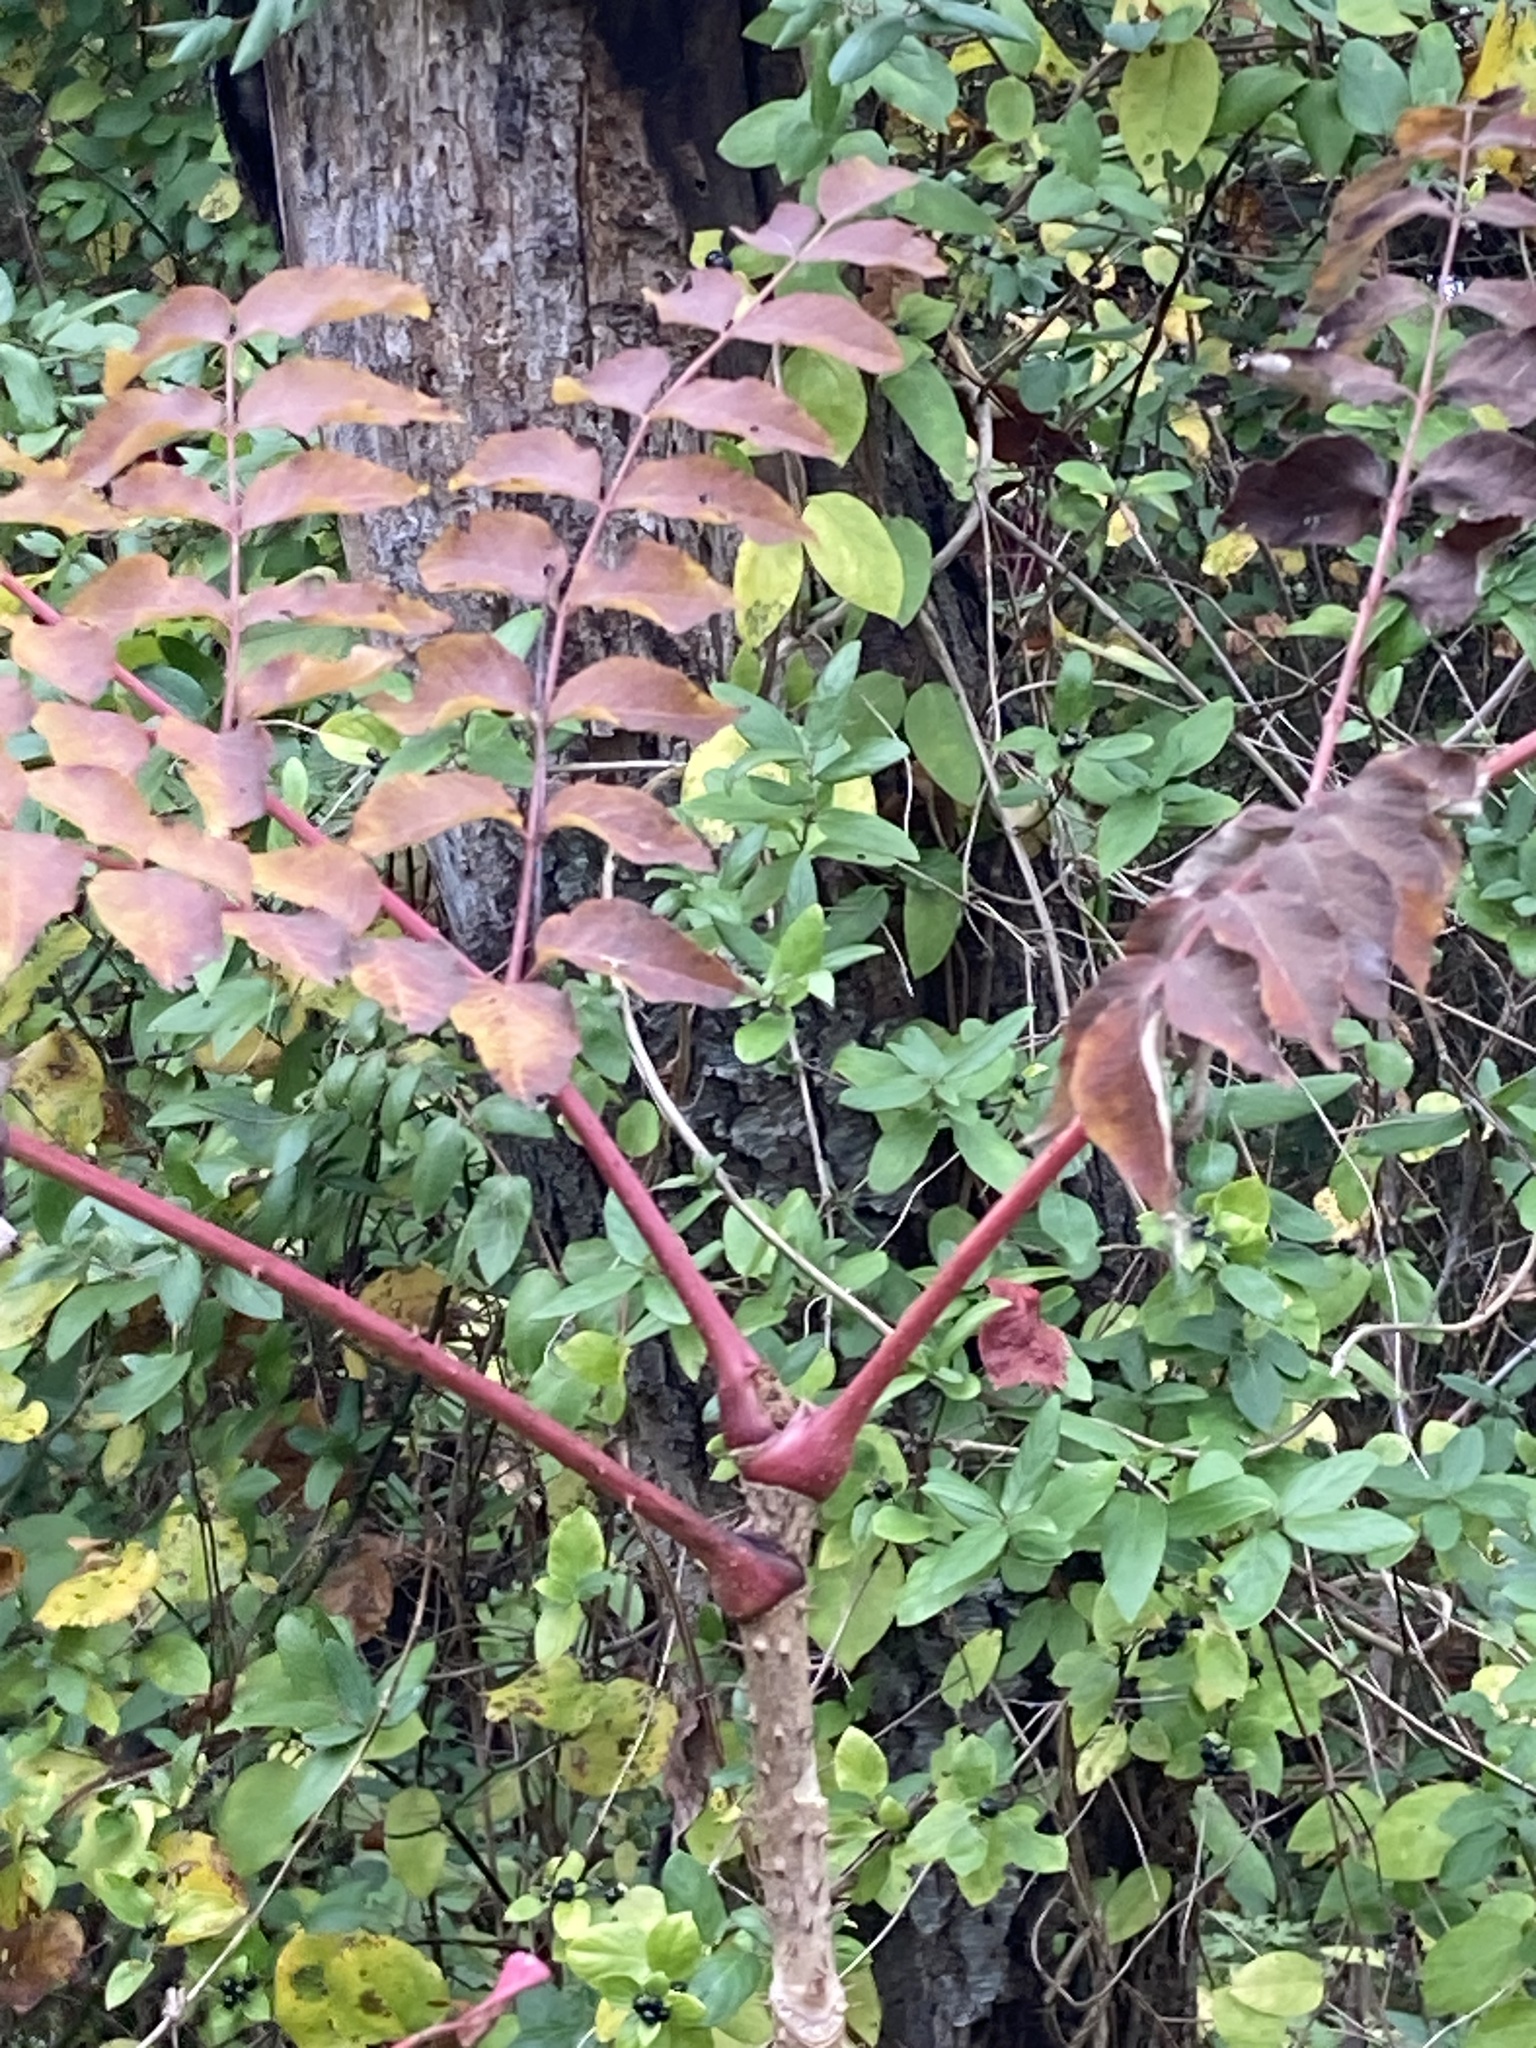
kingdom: Plantae
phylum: Tracheophyta
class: Magnoliopsida
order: Apiales
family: Araliaceae
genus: Aralia
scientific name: Aralia elata
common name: Japanese angelica-tree
